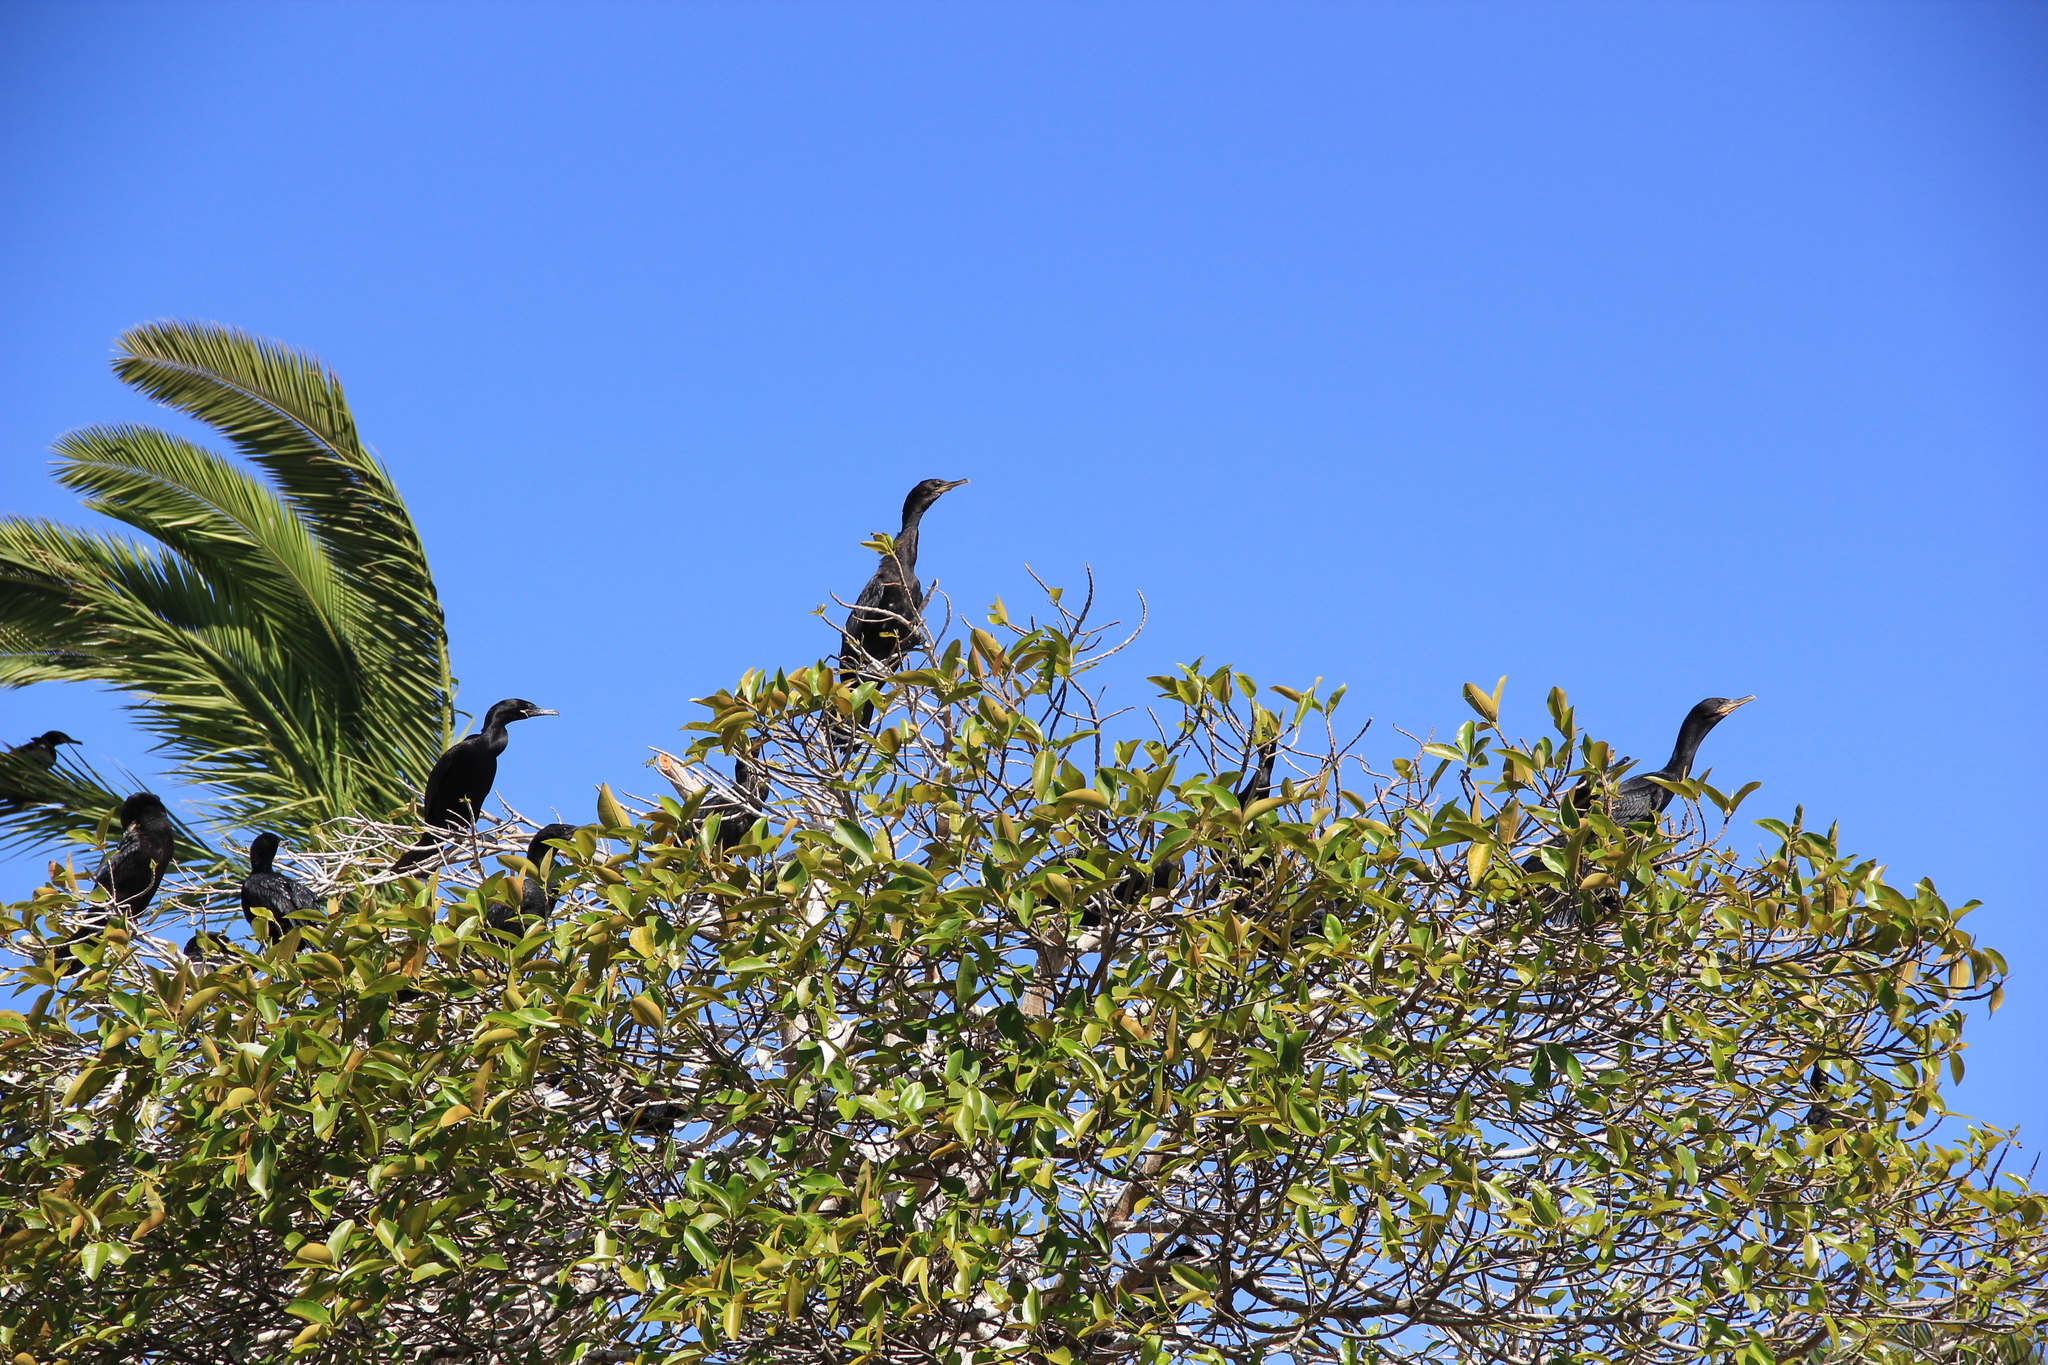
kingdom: Animalia
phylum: Chordata
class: Aves
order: Suliformes
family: Phalacrocoracidae
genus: Phalacrocorax
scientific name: Phalacrocorax brasilianus
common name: Neotropic cormorant
